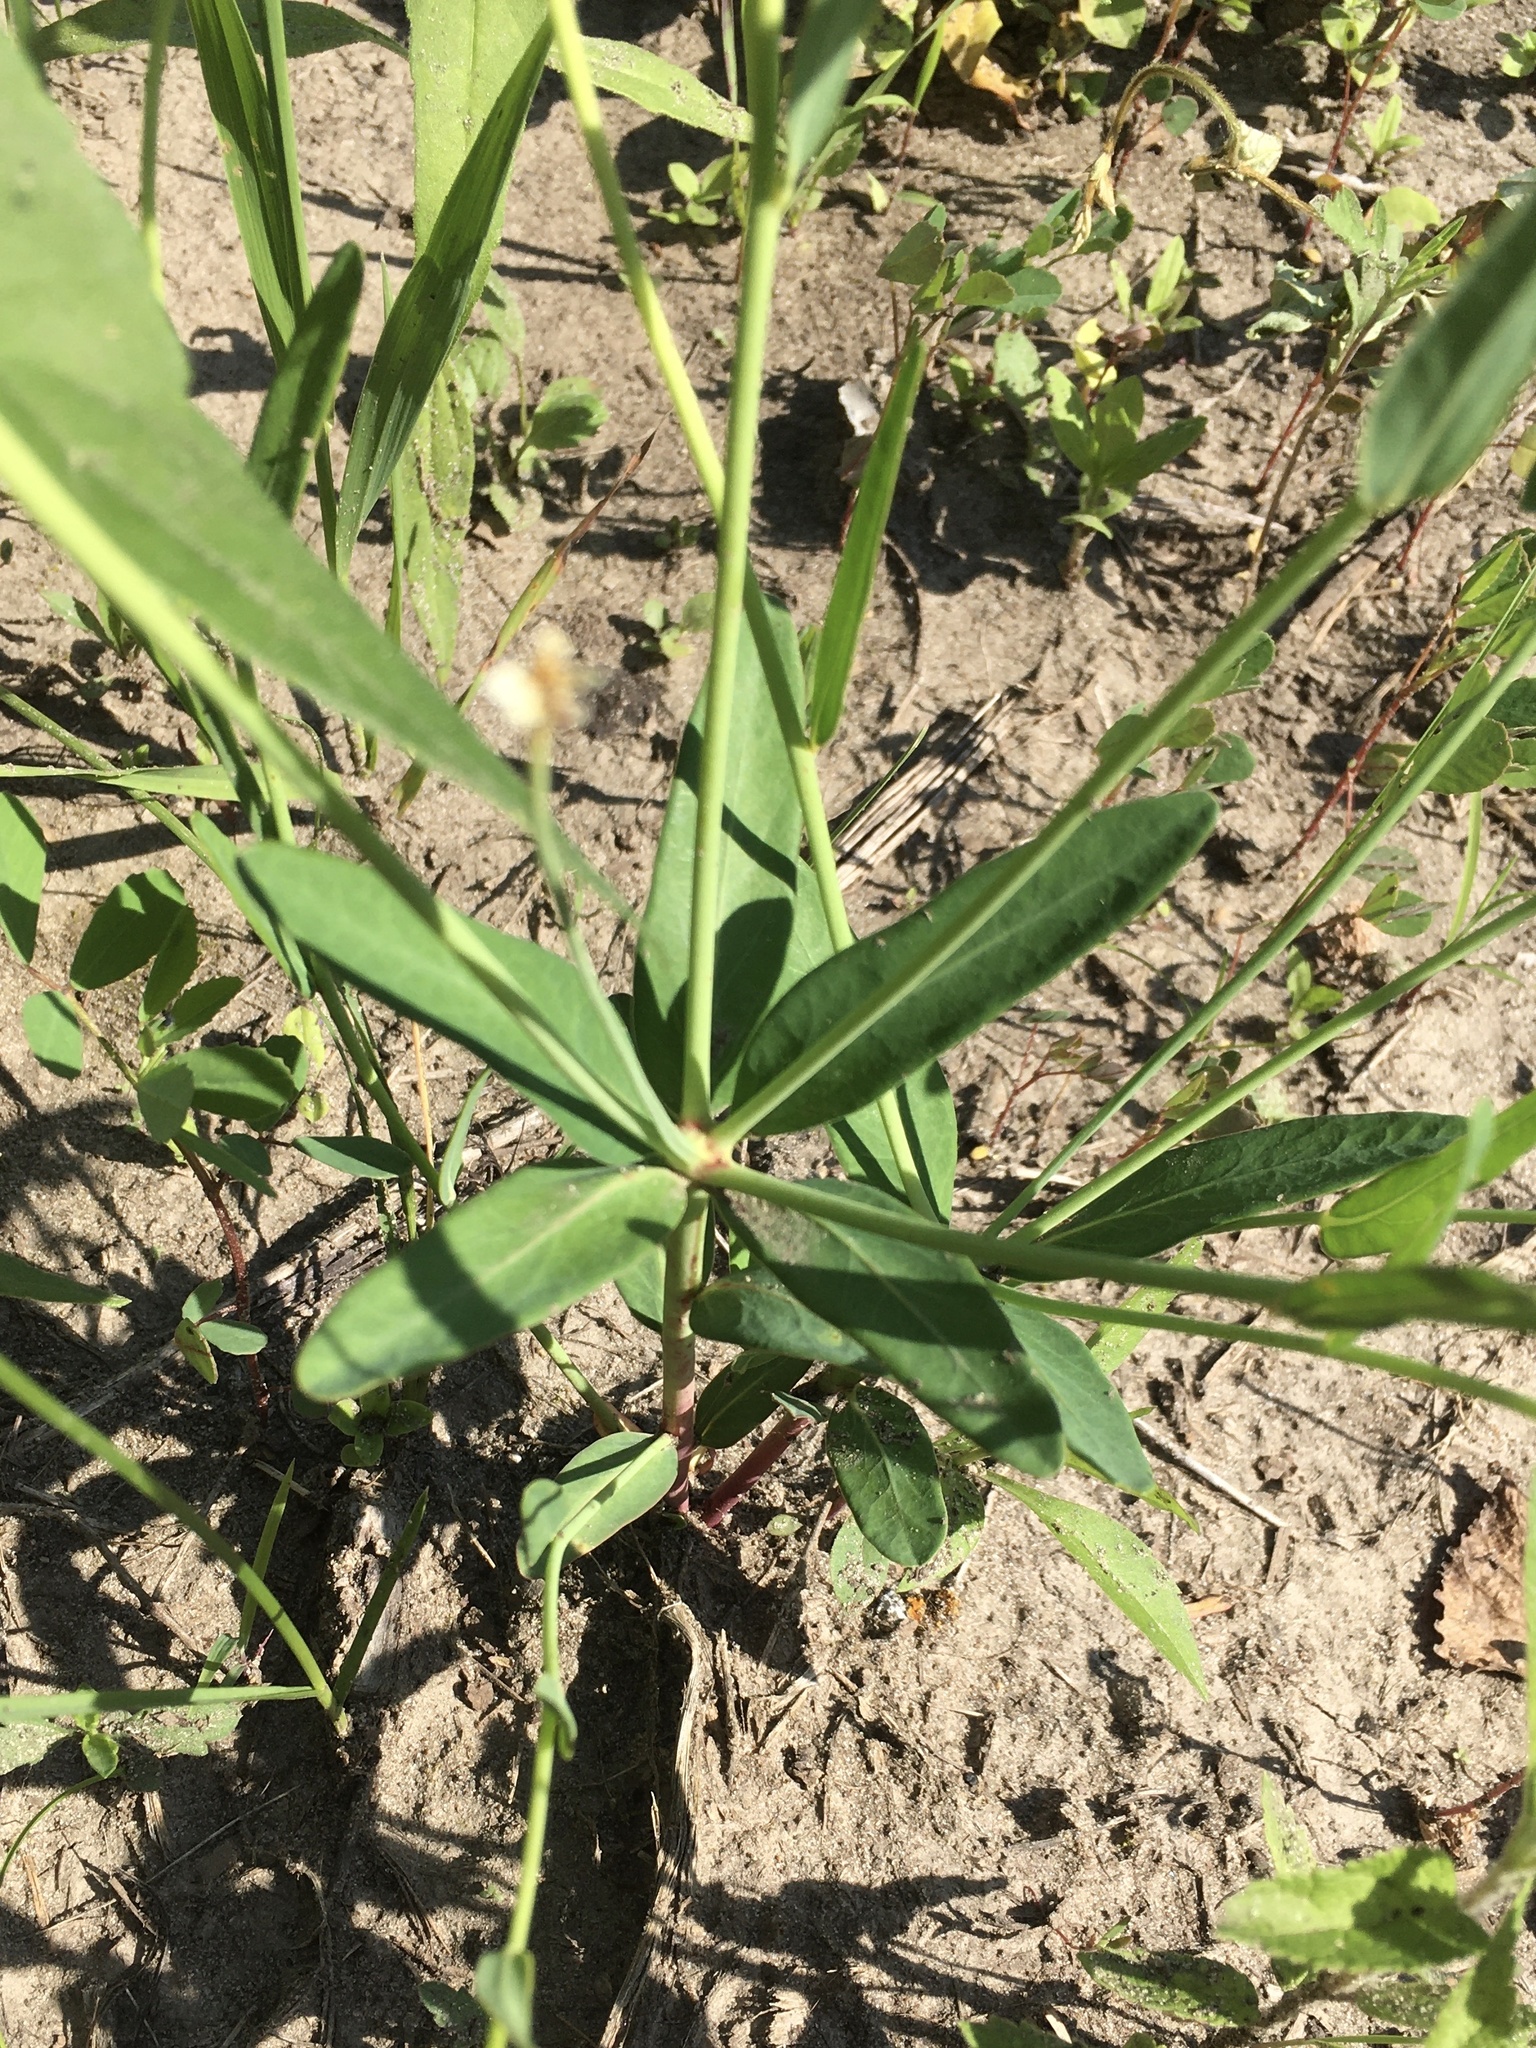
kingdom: Plantae
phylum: Tracheophyta
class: Magnoliopsida
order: Malpighiales
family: Euphorbiaceae
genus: Euphorbia
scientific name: Euphorbia corollata
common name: Flowering spurge
